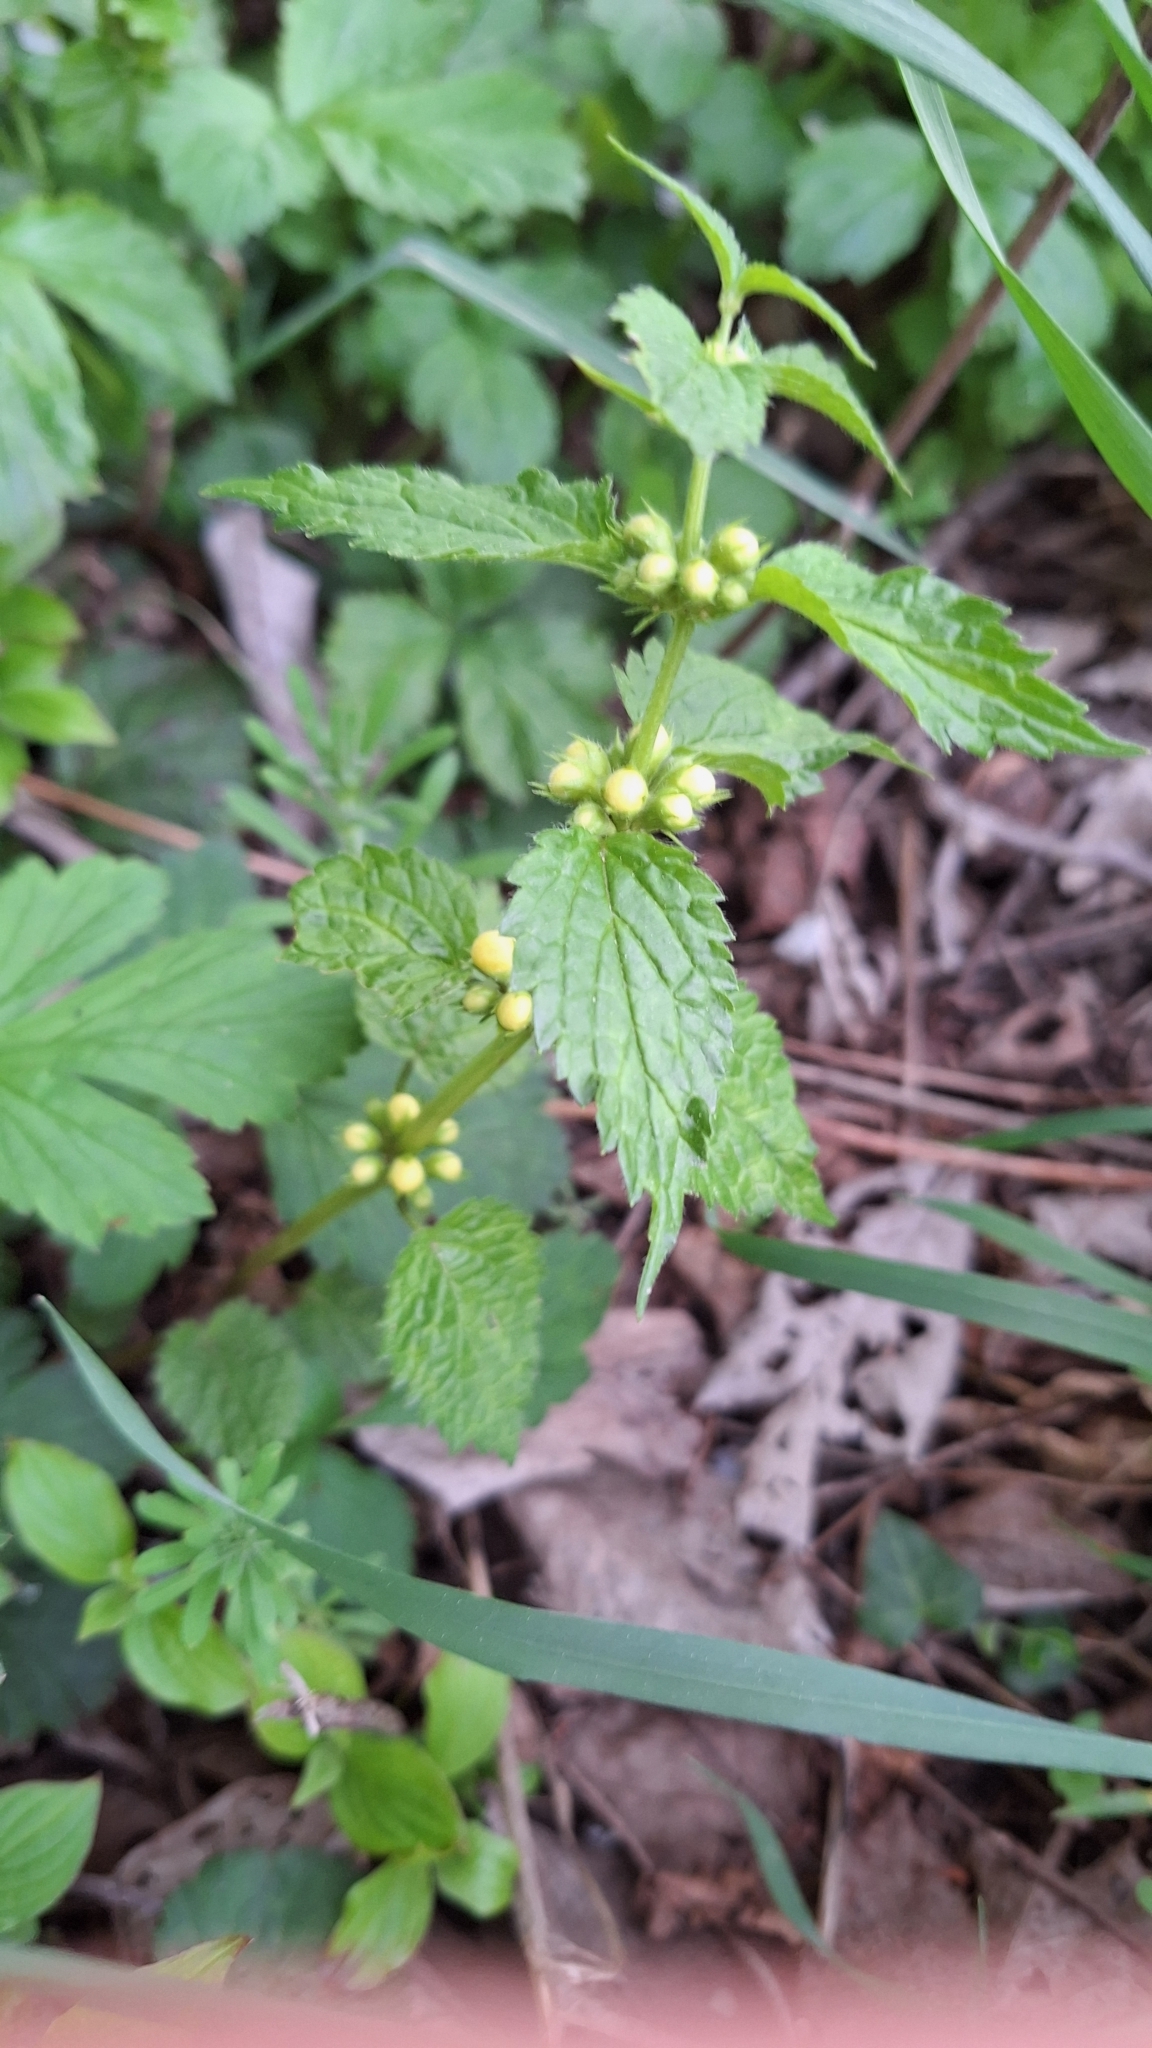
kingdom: Plantae
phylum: Tracheophyta
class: Magnoliopsida
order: Lamiales
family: Lamiaceae
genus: Lamium
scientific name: Lamium galeobdolon
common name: Yellow archangel
